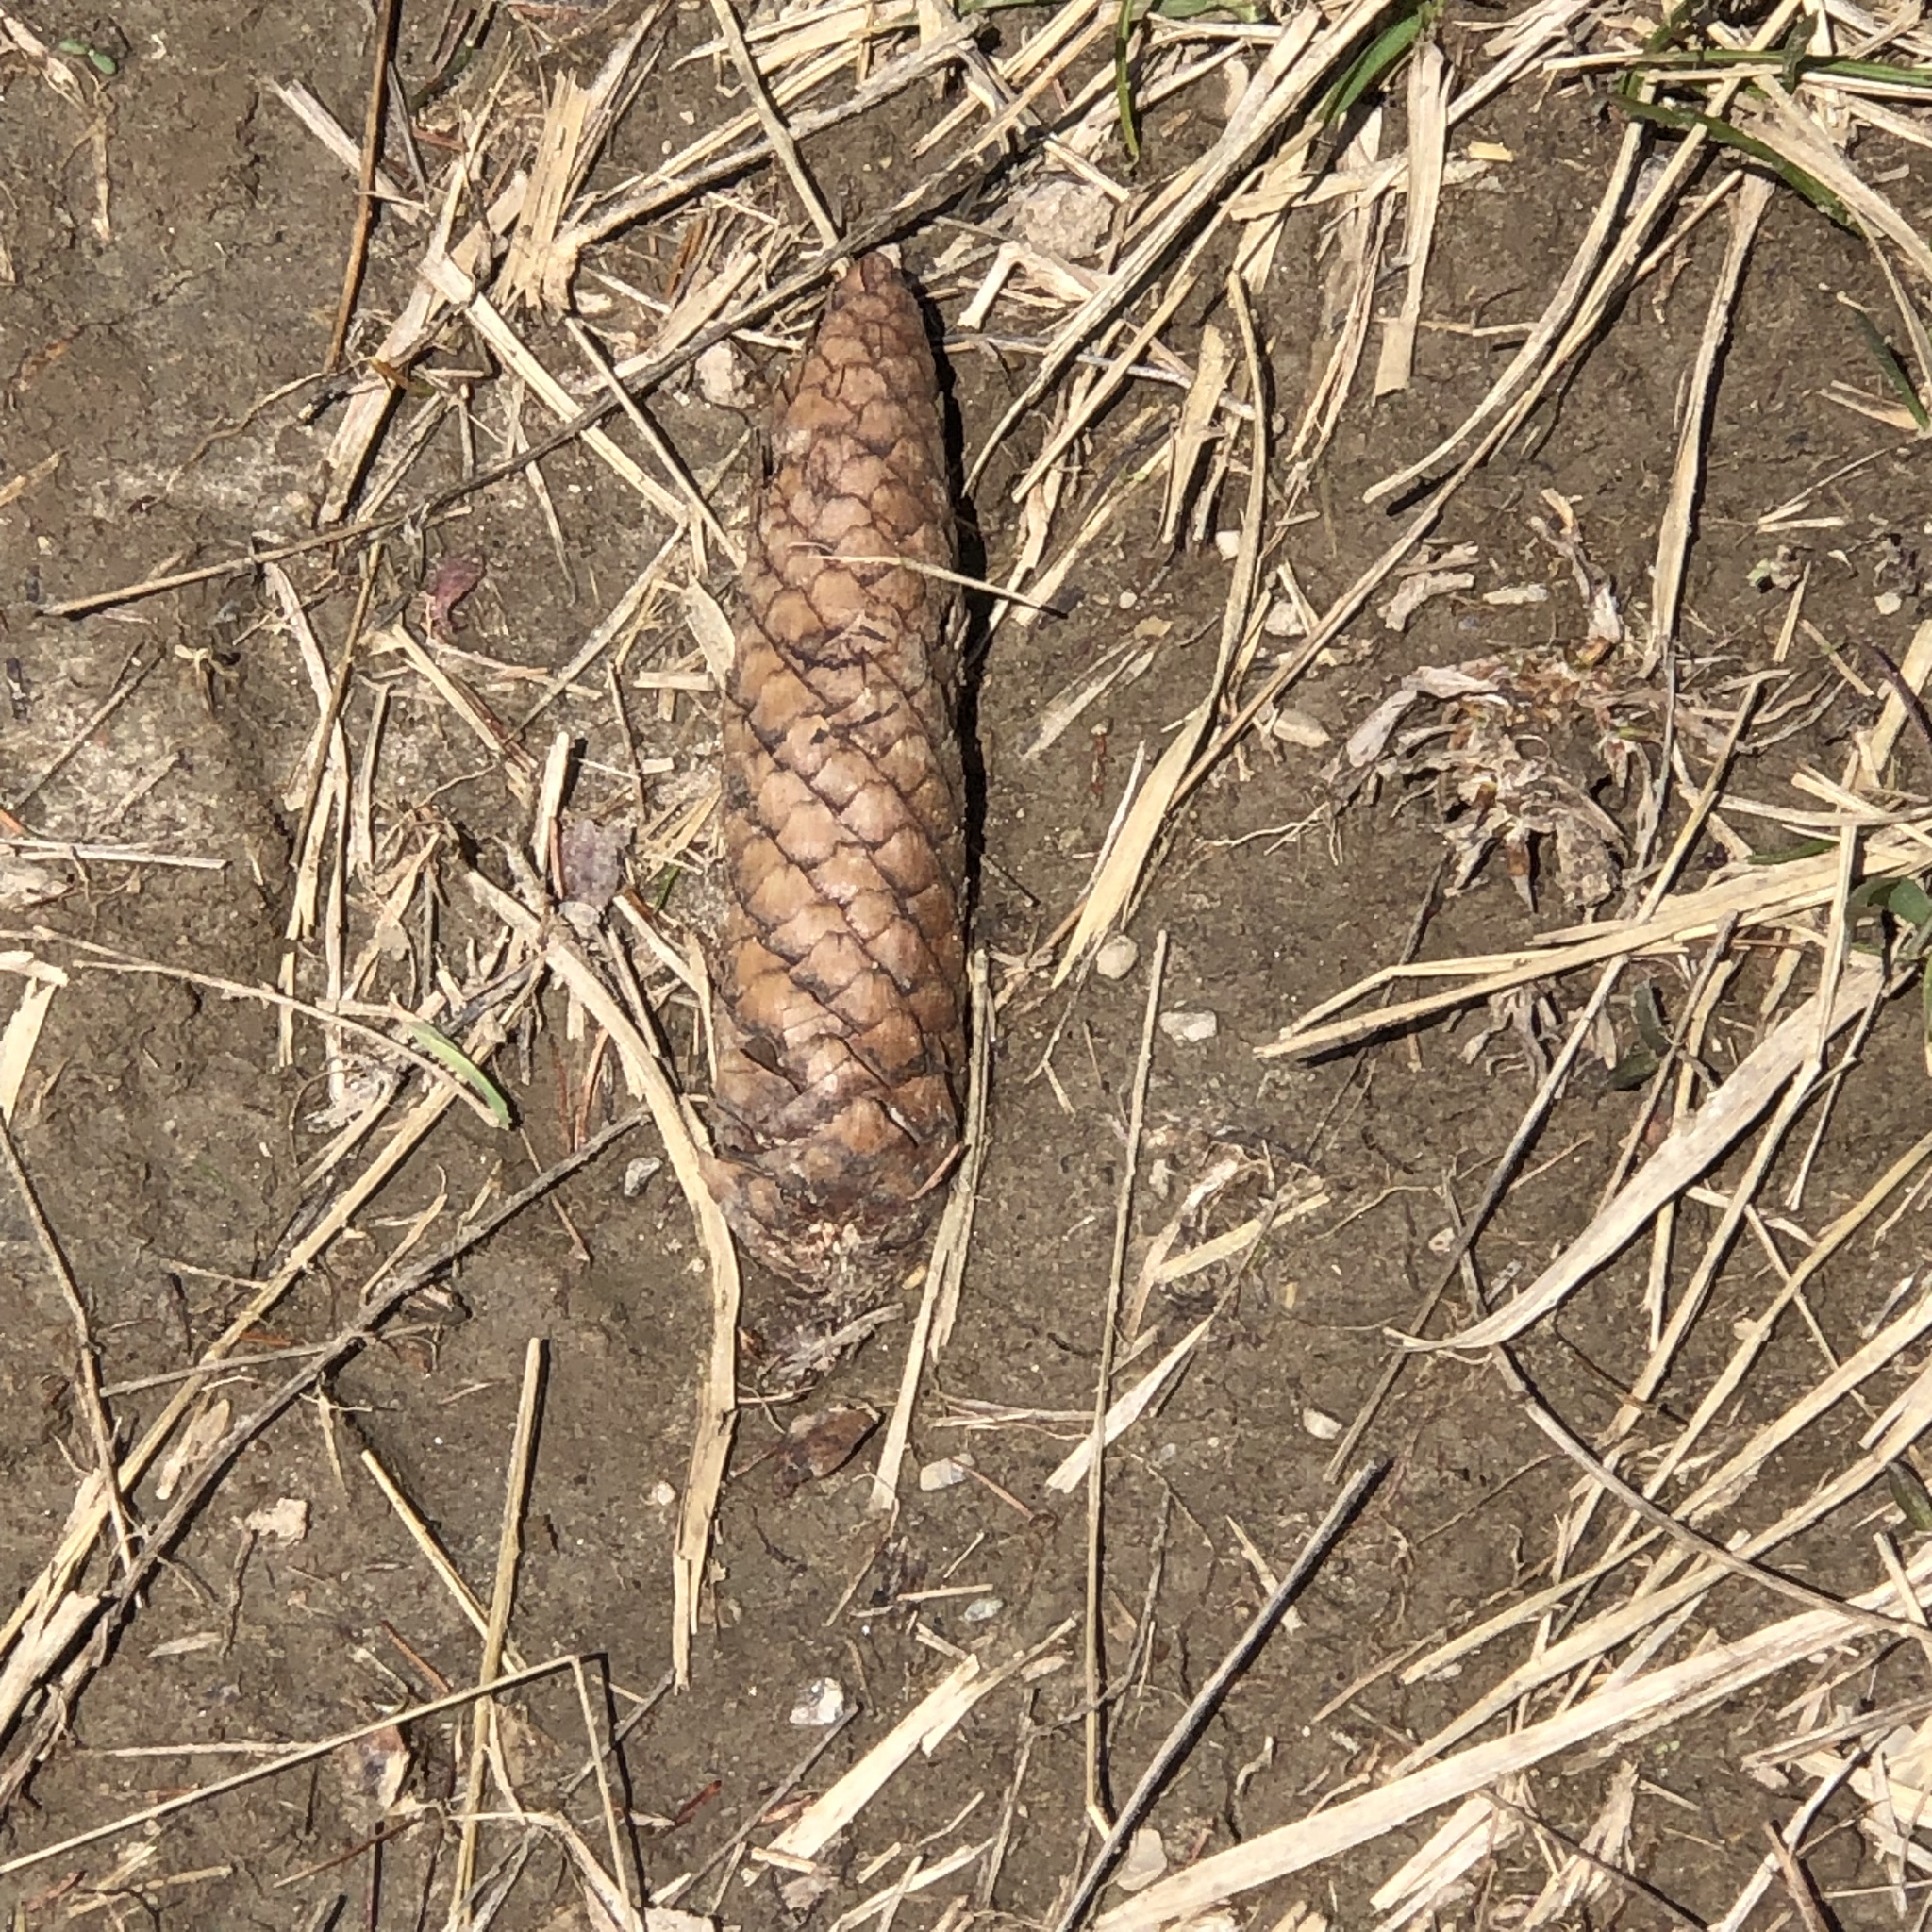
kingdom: Plantae
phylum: Tracheophyta
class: Pinopsida
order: Pinales
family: Pinaceae
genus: Picea
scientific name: Picea abies
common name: Norway spruce
